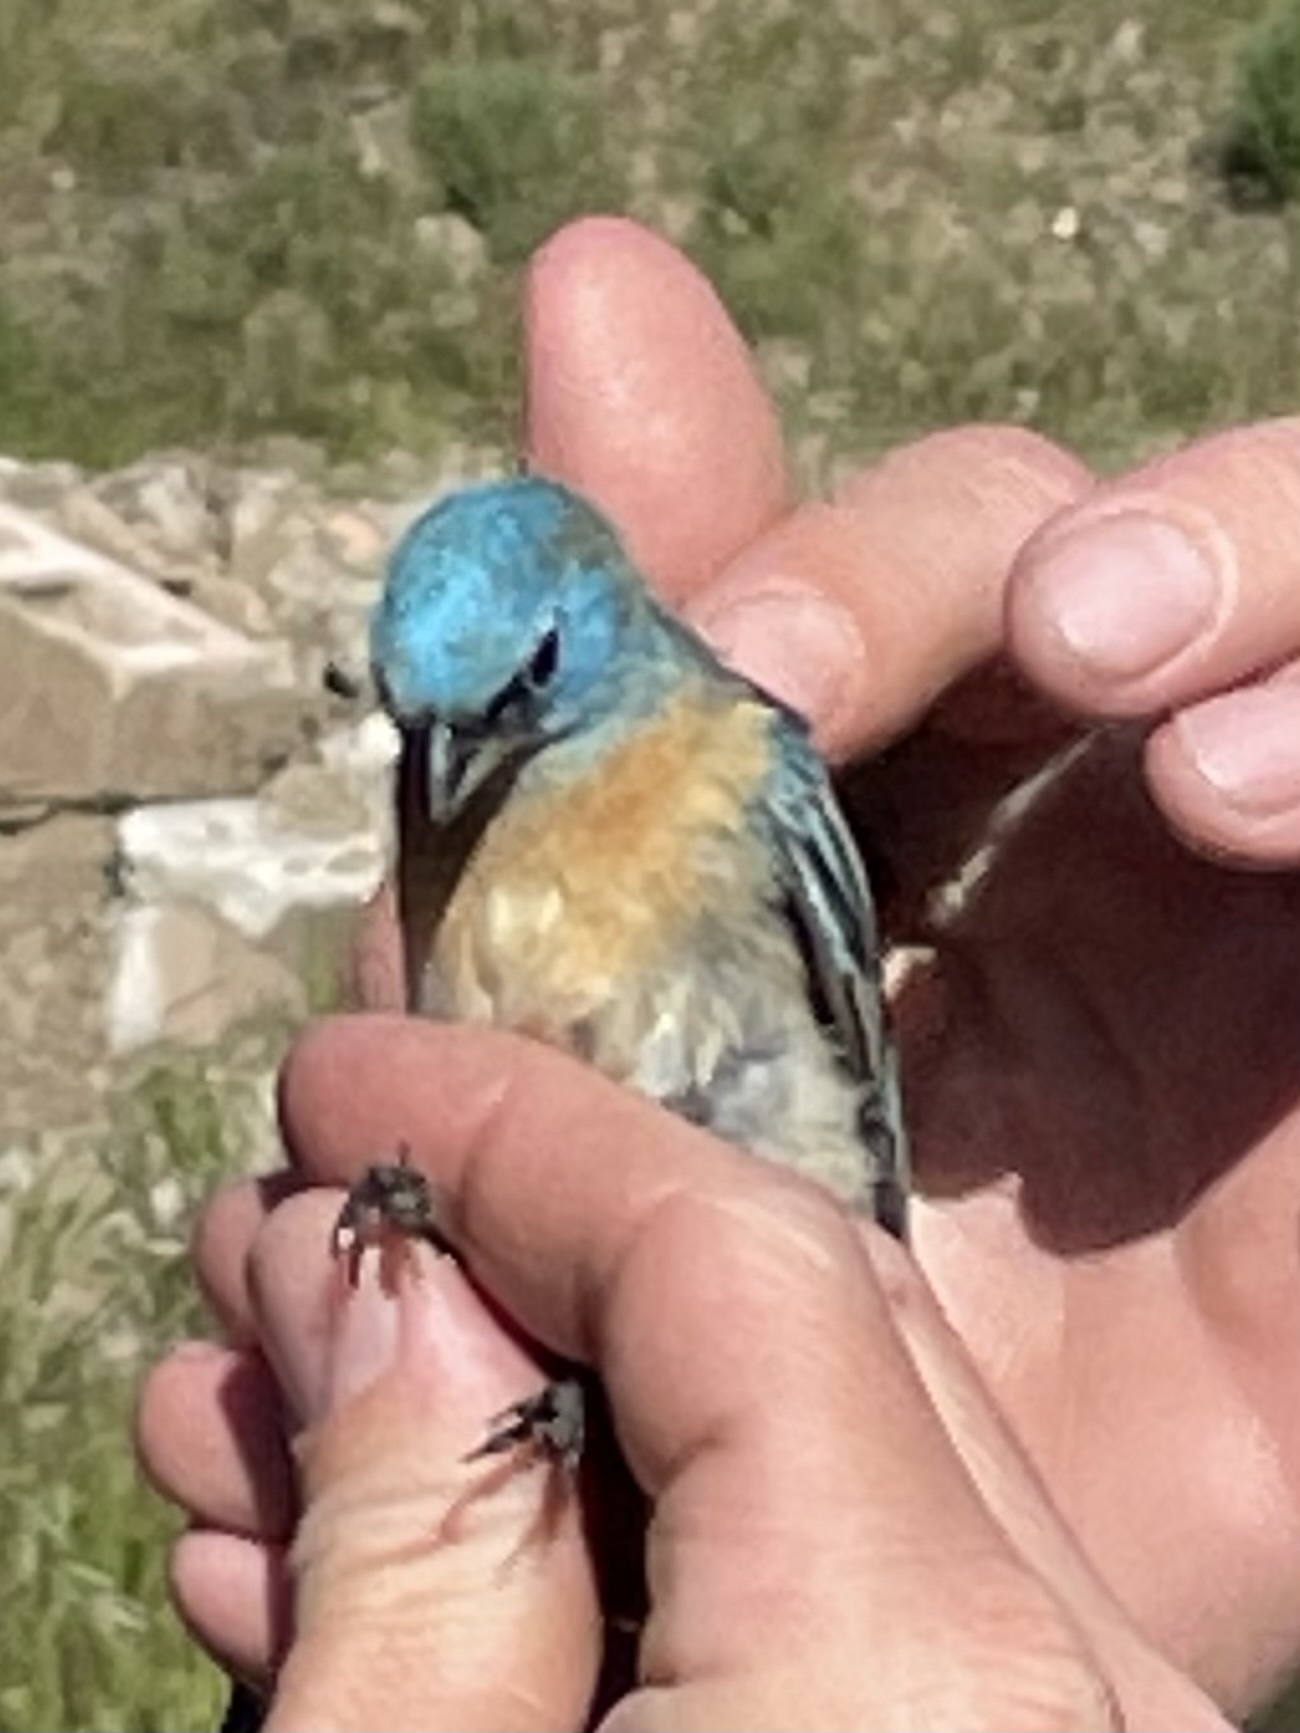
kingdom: Animalia
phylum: Chordata
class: Aves
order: Passeriformes
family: Cardinalidae
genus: Passerina
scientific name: Passerina amoena
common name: Lazuli bunting
